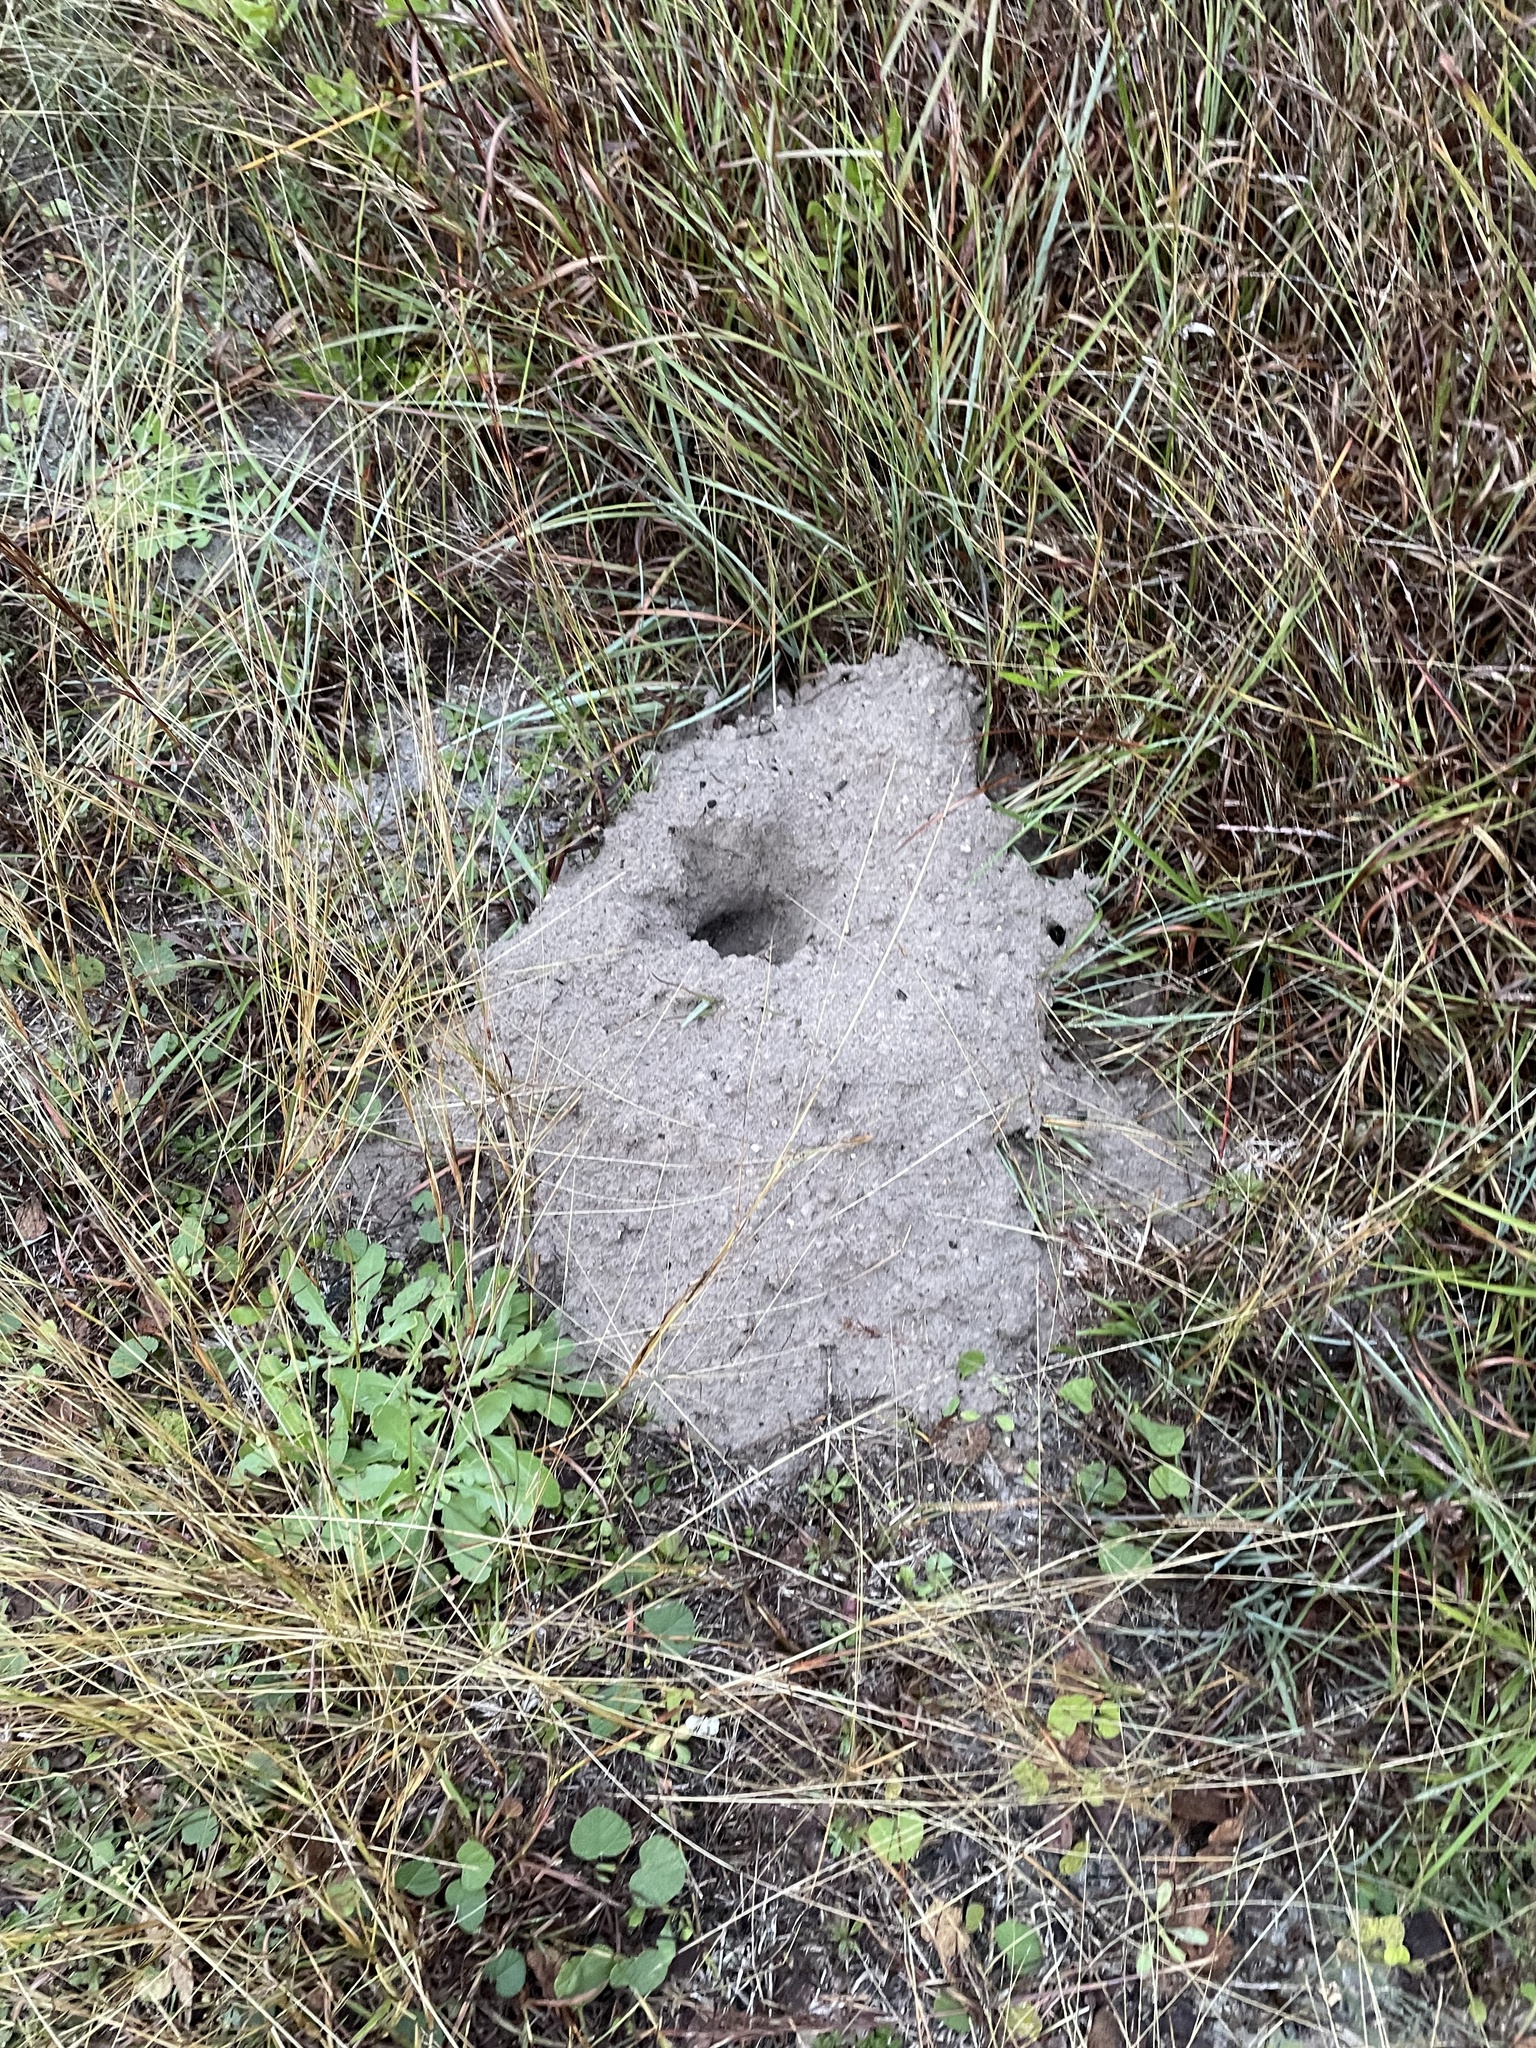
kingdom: Animalia
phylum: Chordata
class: Mammalia
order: Rodentia
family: Geomyidae
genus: Geomys
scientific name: Geomys personatus
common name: Texas pocket gopher
